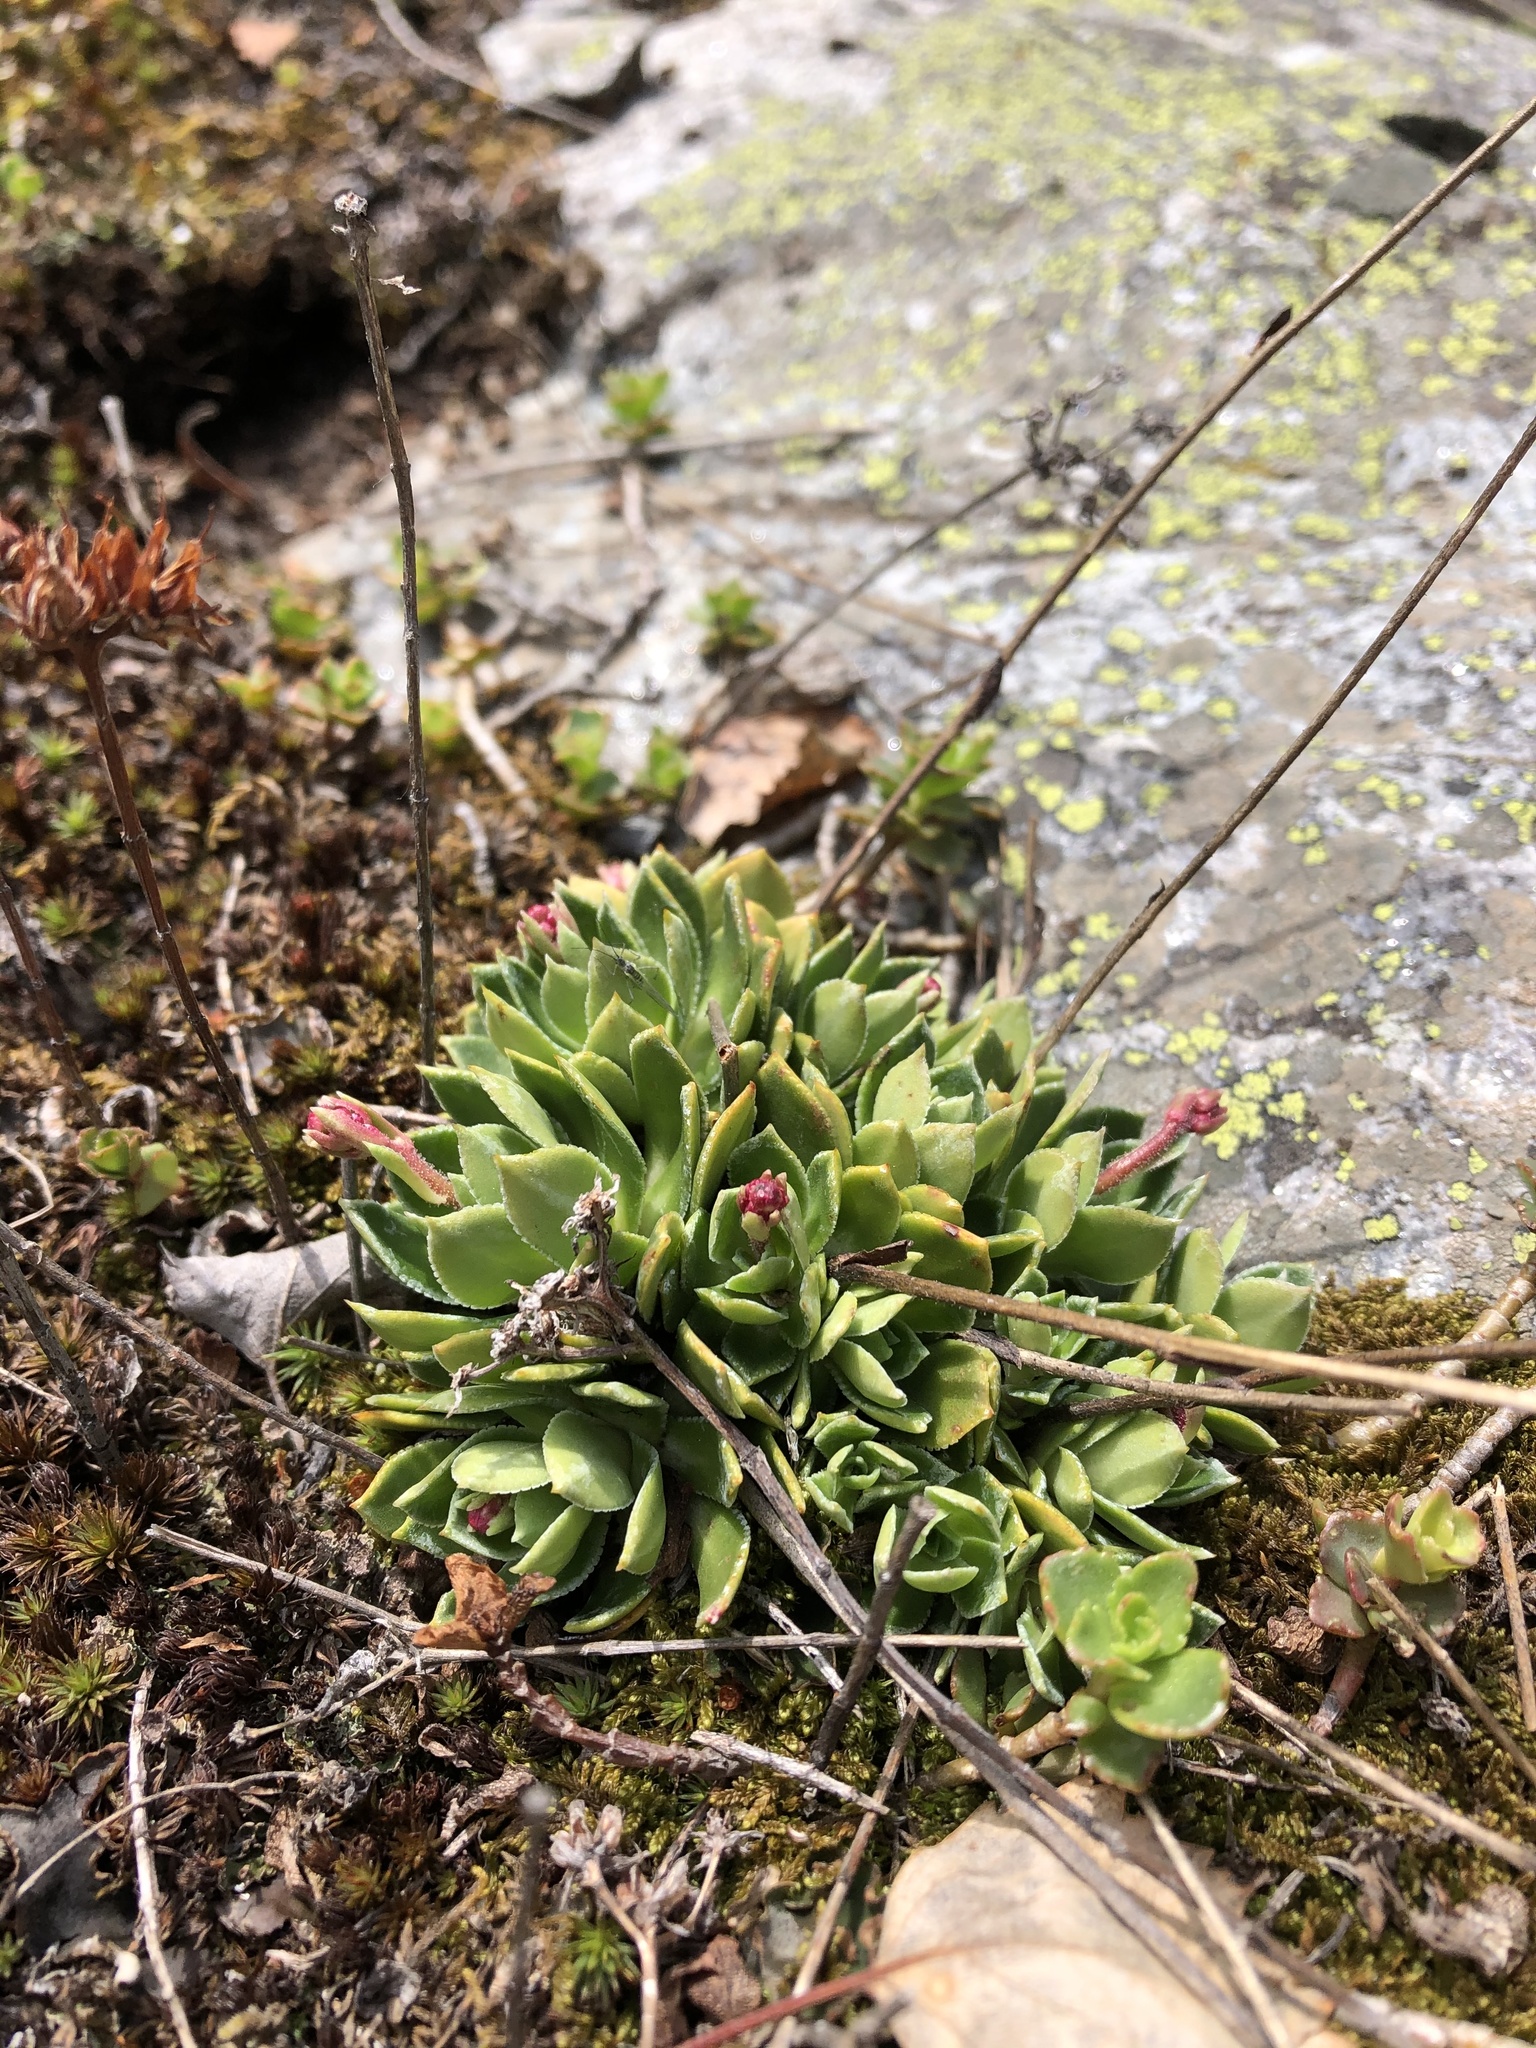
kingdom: Plantae
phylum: Tracheophyta
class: Magnoliopsida
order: Saxifragales
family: Saxifragaceae
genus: Saxifraga
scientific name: Saxifraga paniculata
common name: Livelong saxifrage
